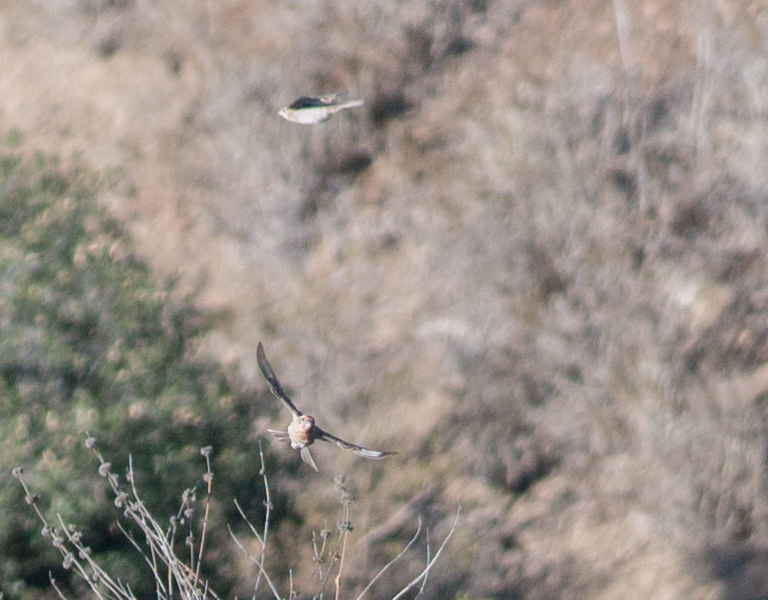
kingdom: Animalia
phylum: Chordata
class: Aves
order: Passeriformes
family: Fringillidae
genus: Haemorhous
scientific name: Haemorhous mexicanus
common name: House finch
